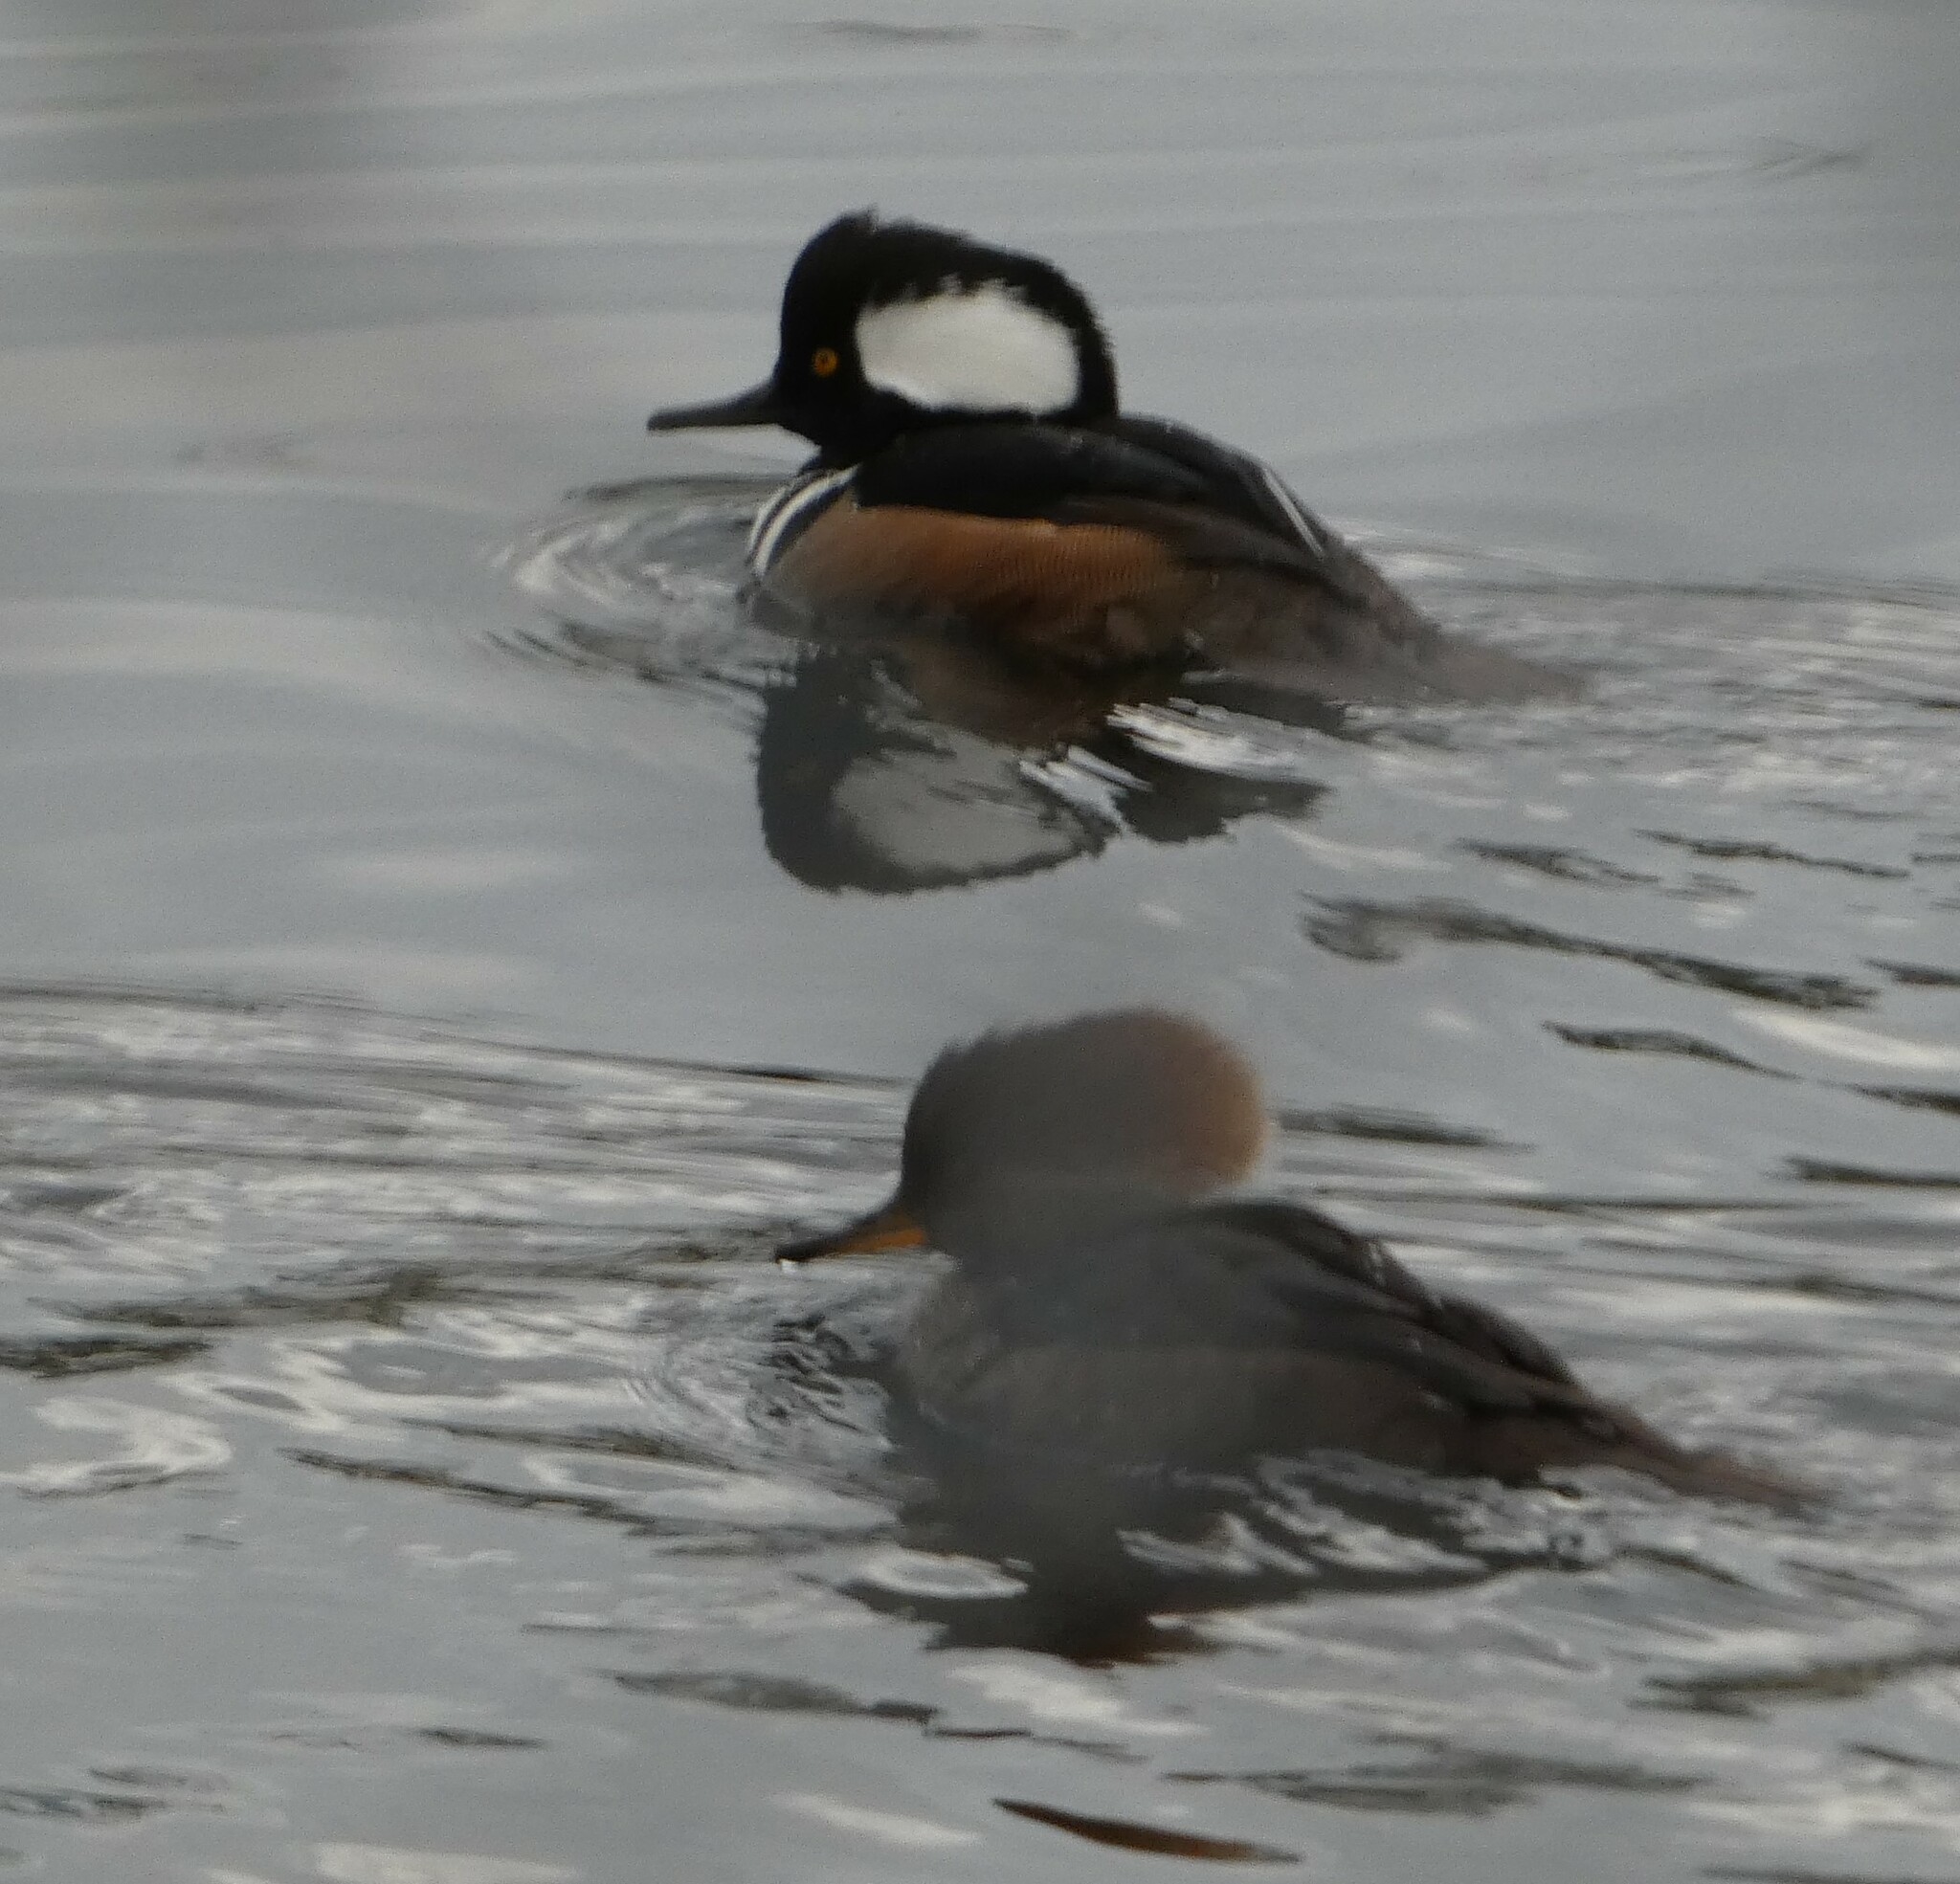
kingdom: Animalia
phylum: Chordata
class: Aves
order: Anseriformes
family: Anatidae
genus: Lophodytes
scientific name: Lophodytes cucullatus
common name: Hooded merganser
